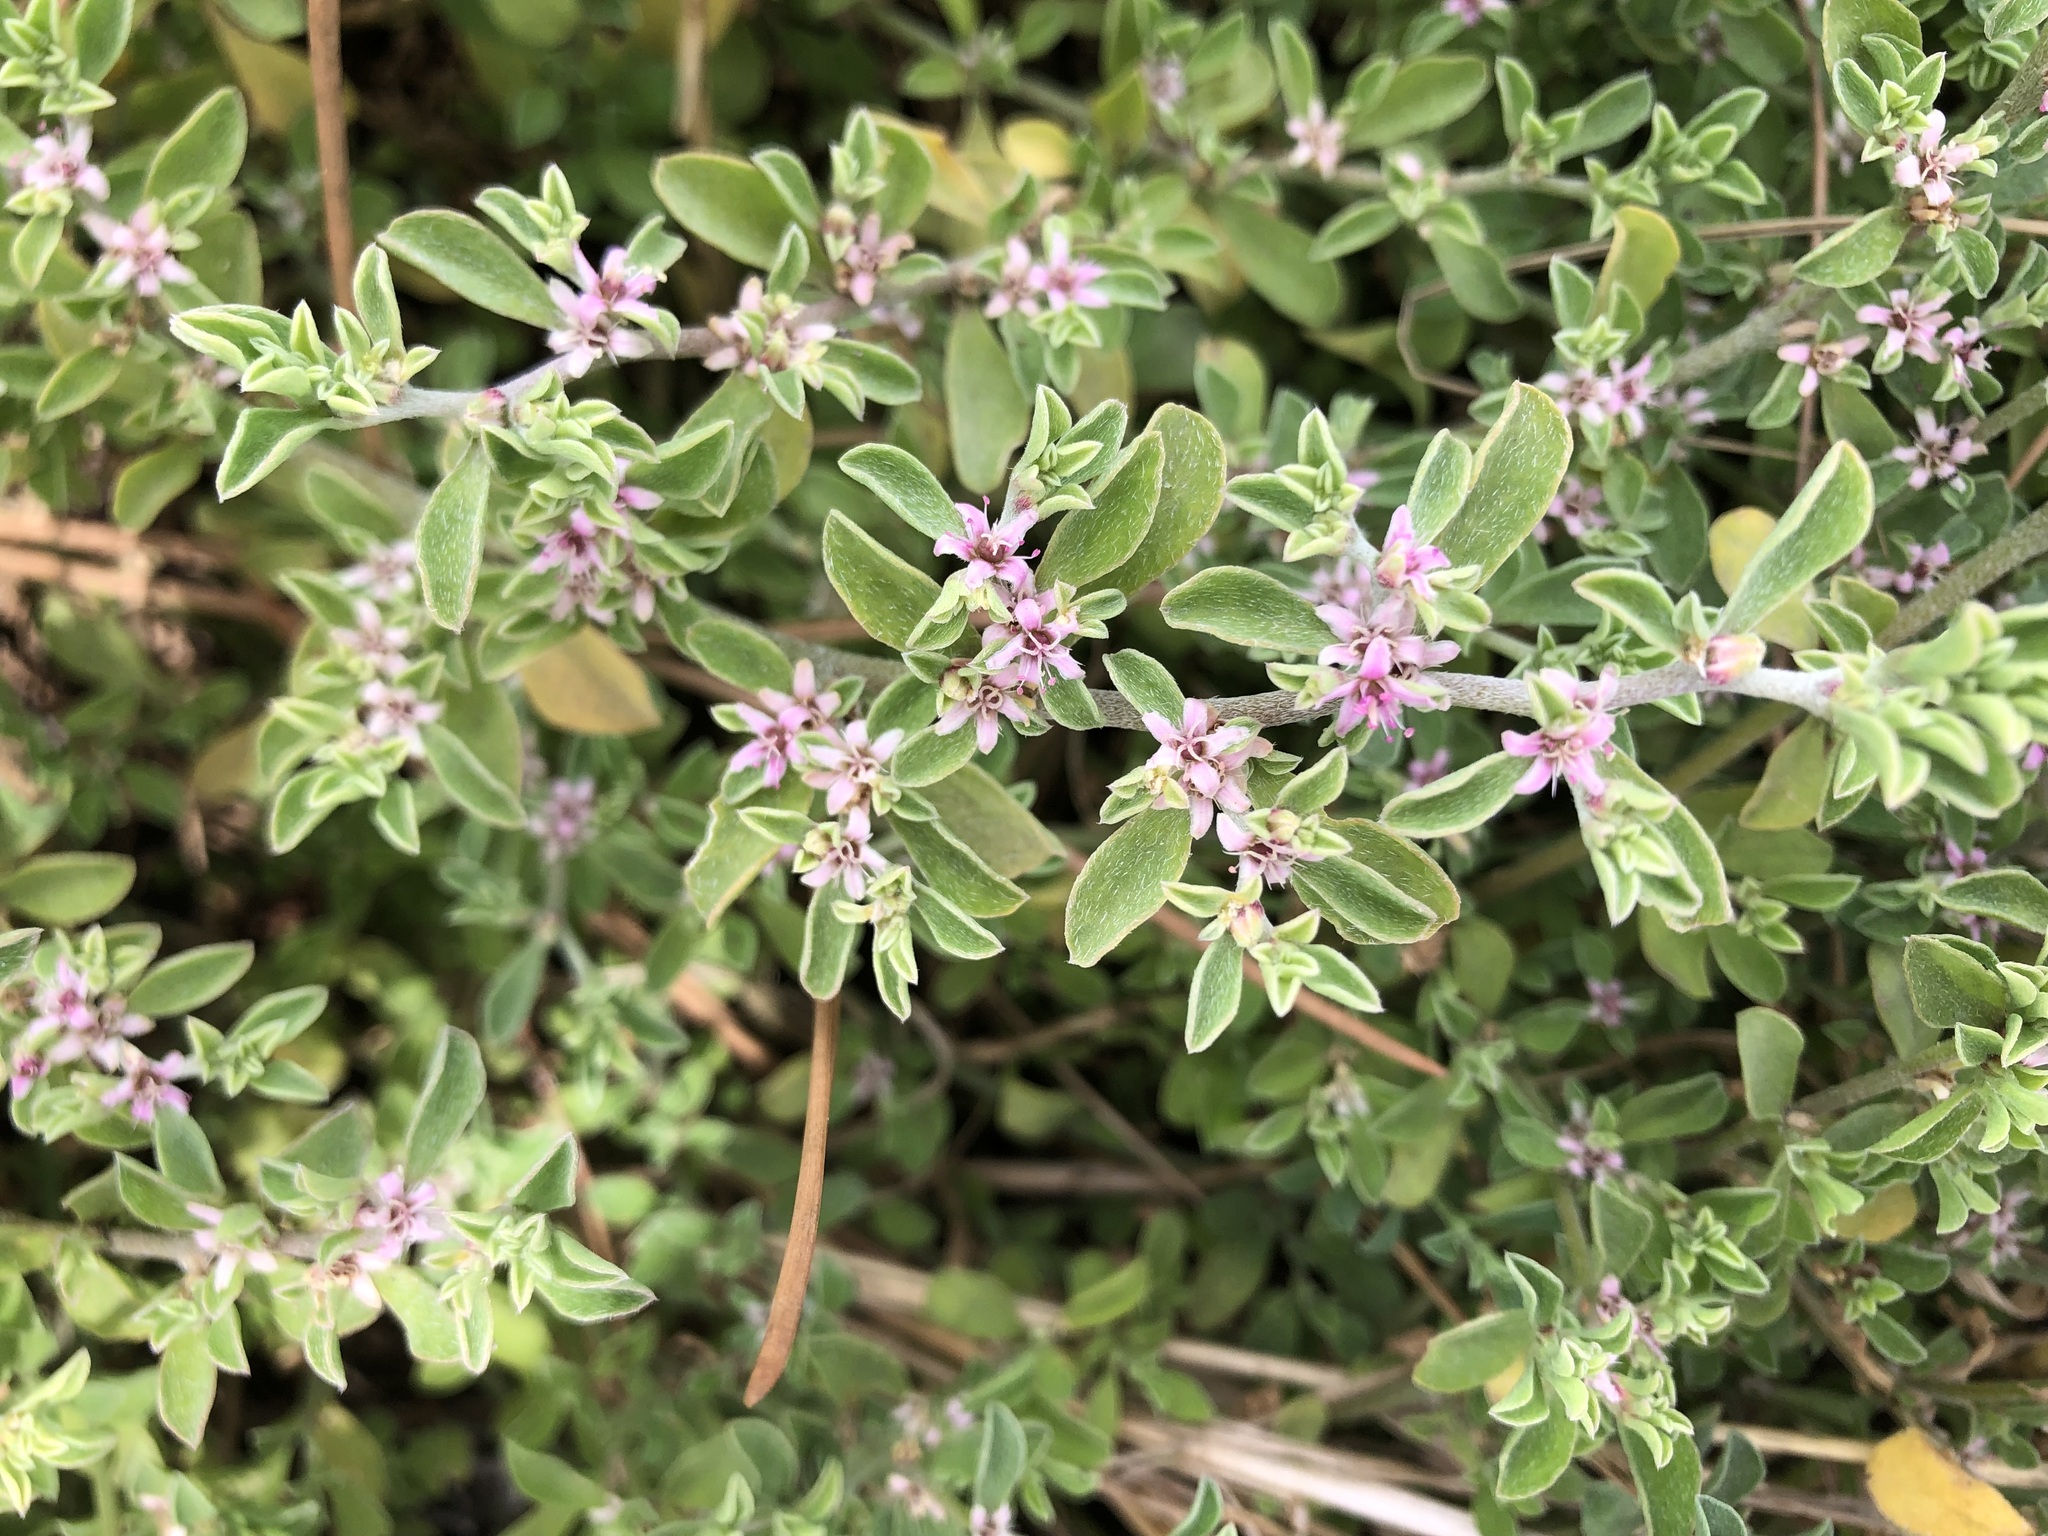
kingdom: Plantae
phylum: Tracheophyta
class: Magnoliopsida
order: Caryophyllales
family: Aizoaceae
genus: Aizoon
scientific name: Aizoon secundum
